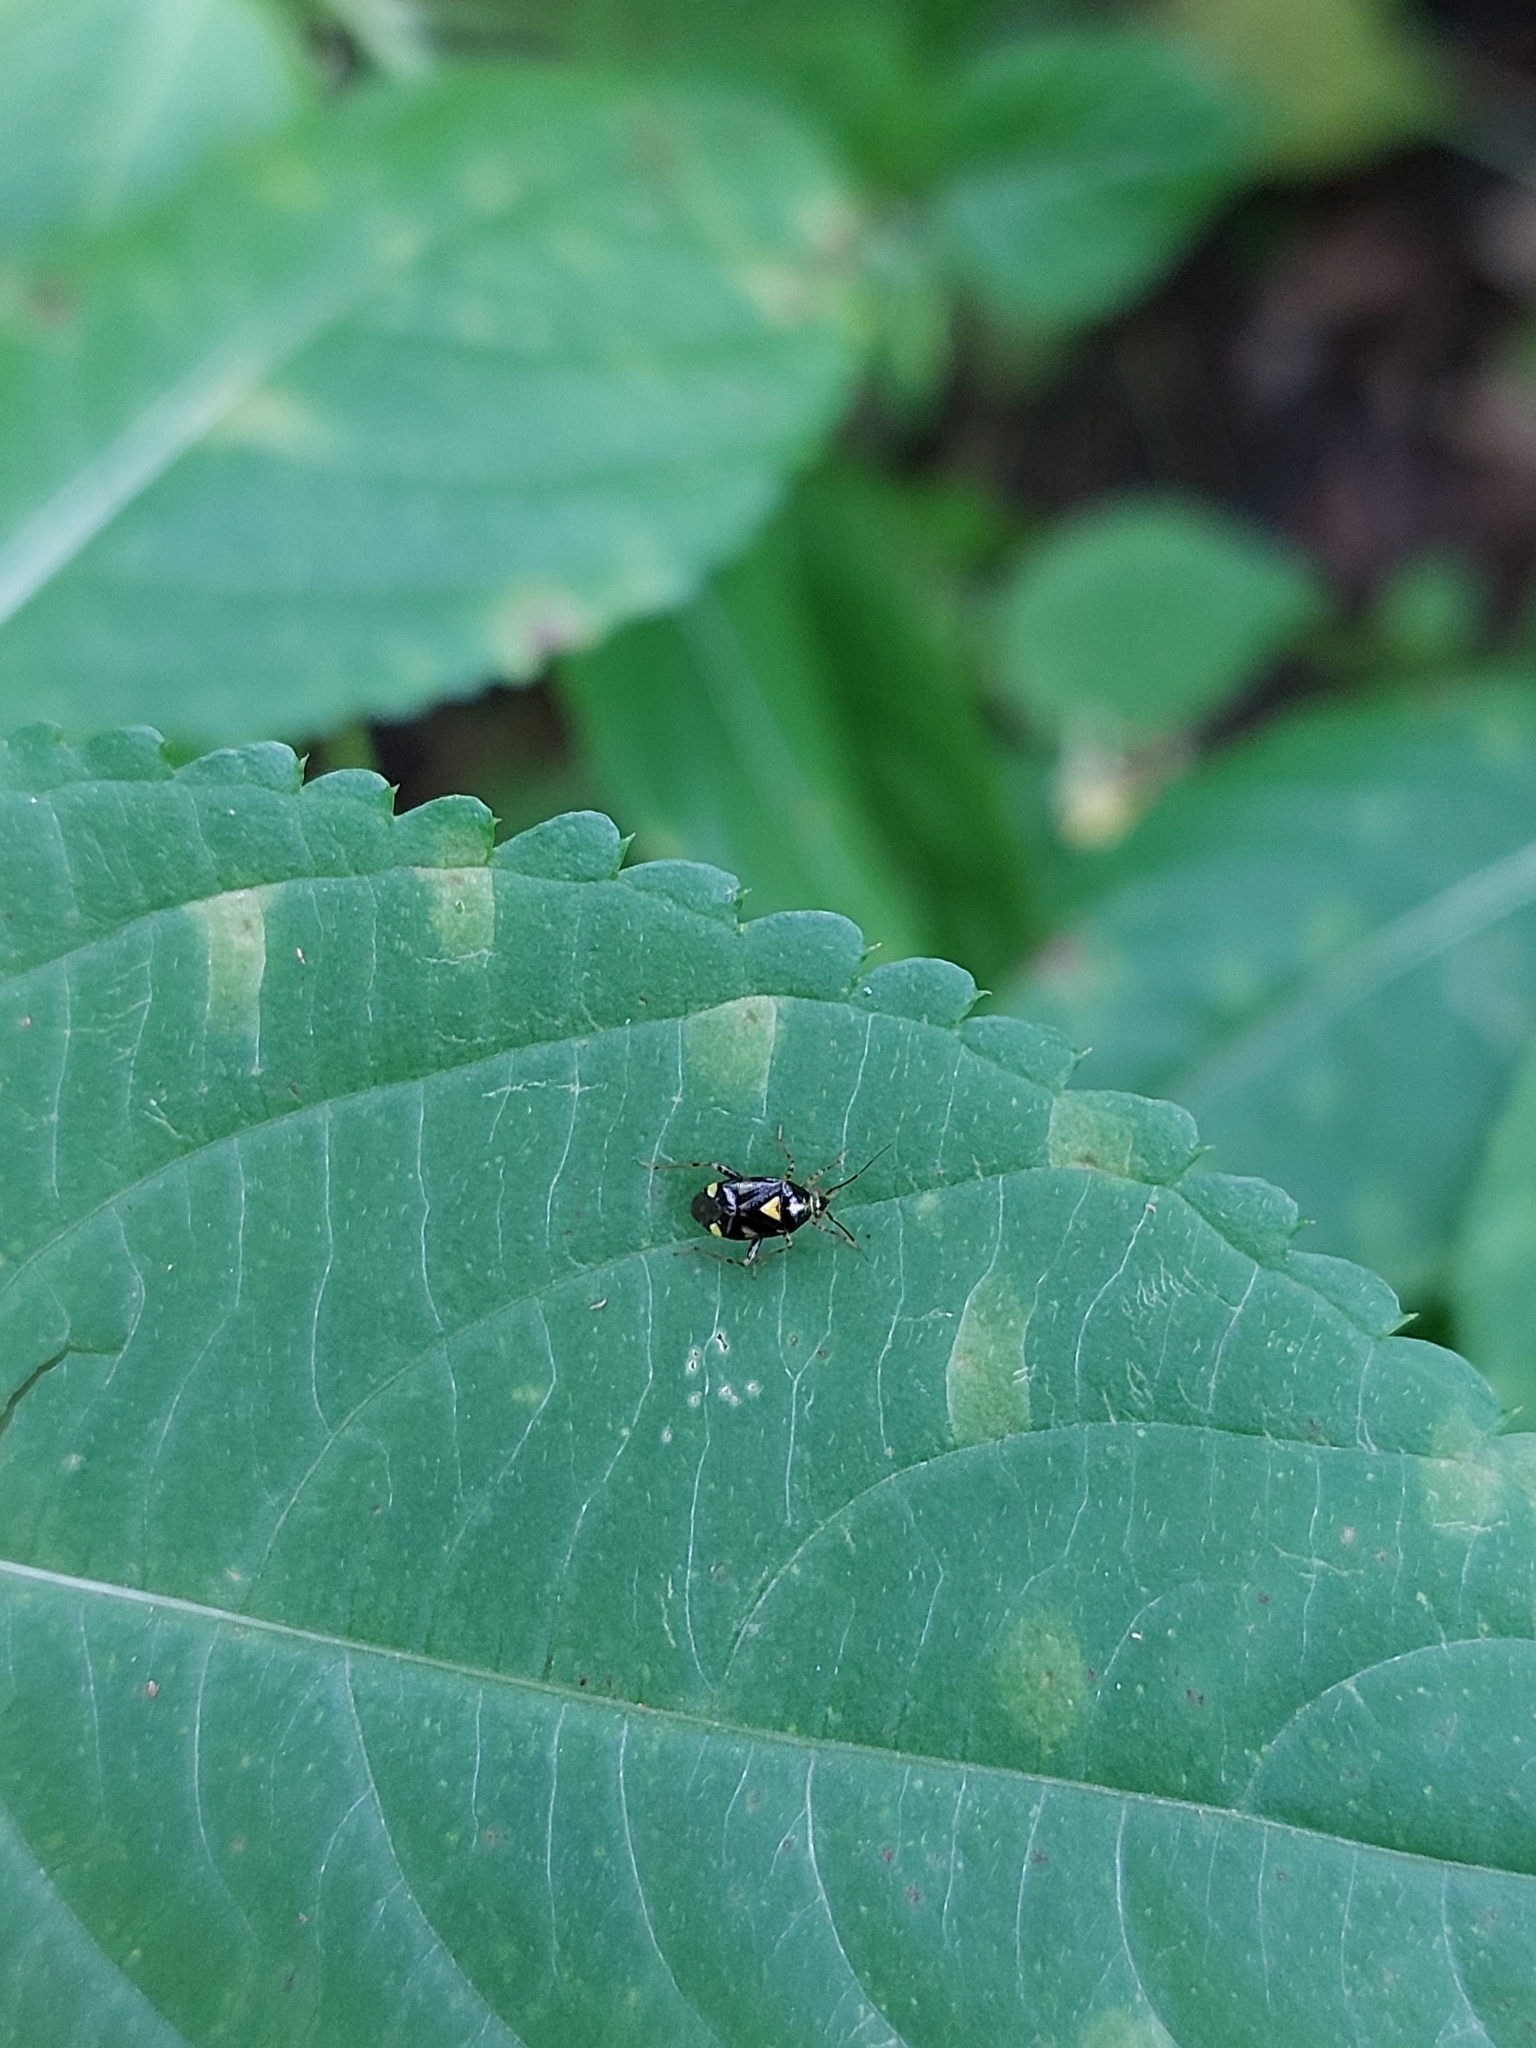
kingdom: Animalia
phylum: Arthropoda
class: Insecta
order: Hemiptera
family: Miridae
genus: Liocoris
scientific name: Liocoris tripustulatus
